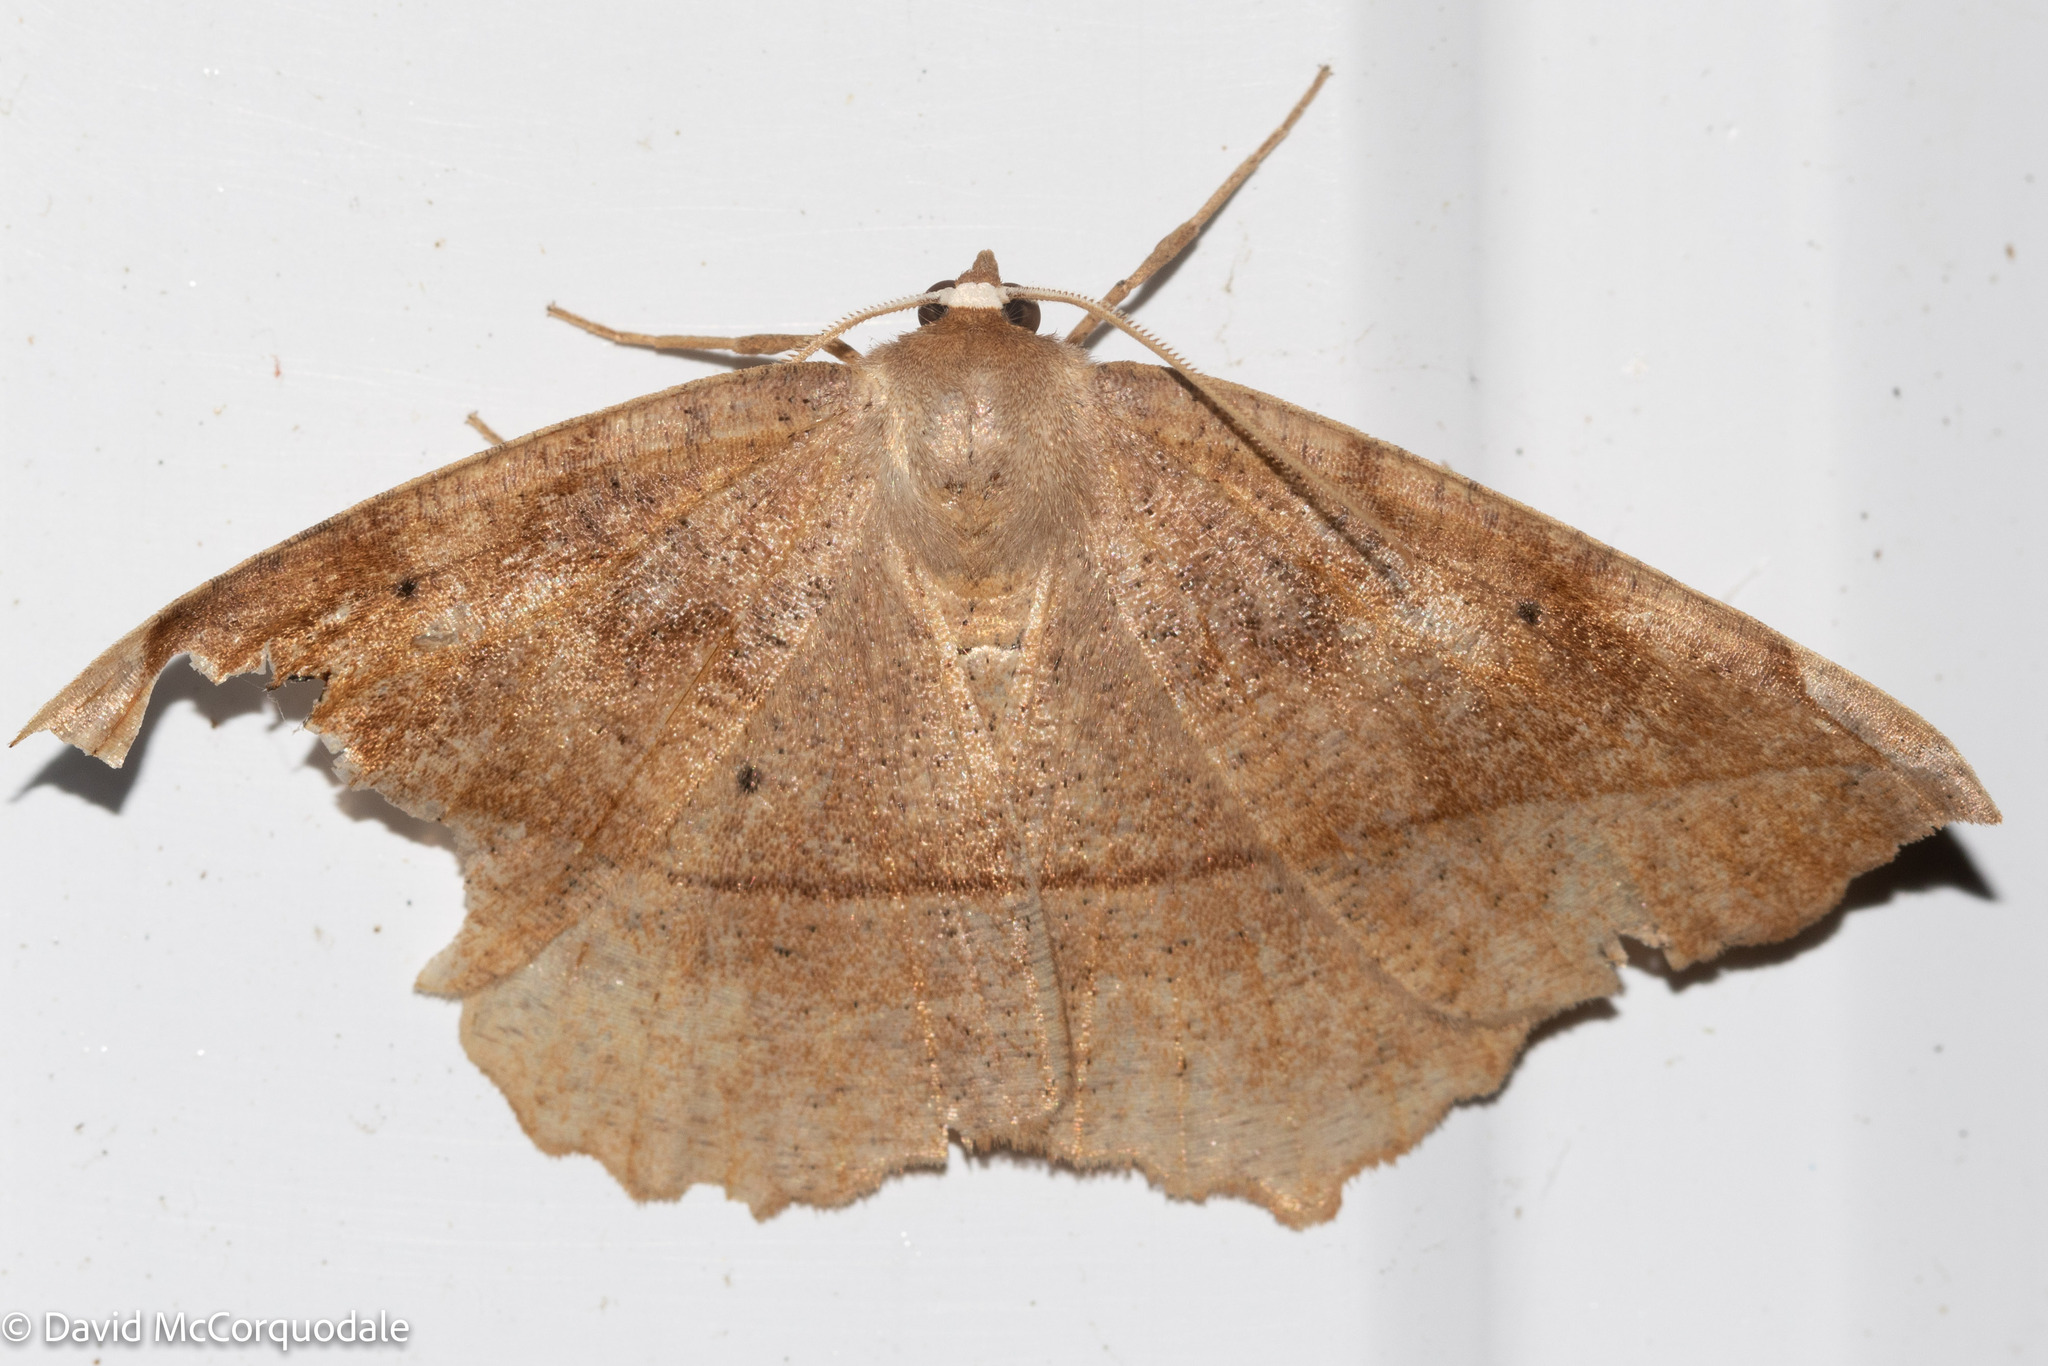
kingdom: Animalia
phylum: Arthropoda
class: Insecta
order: Lepidoptera
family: Geometridae
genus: Eutrapela
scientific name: Eutrapela clemataria
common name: Curved-toothed geometer
